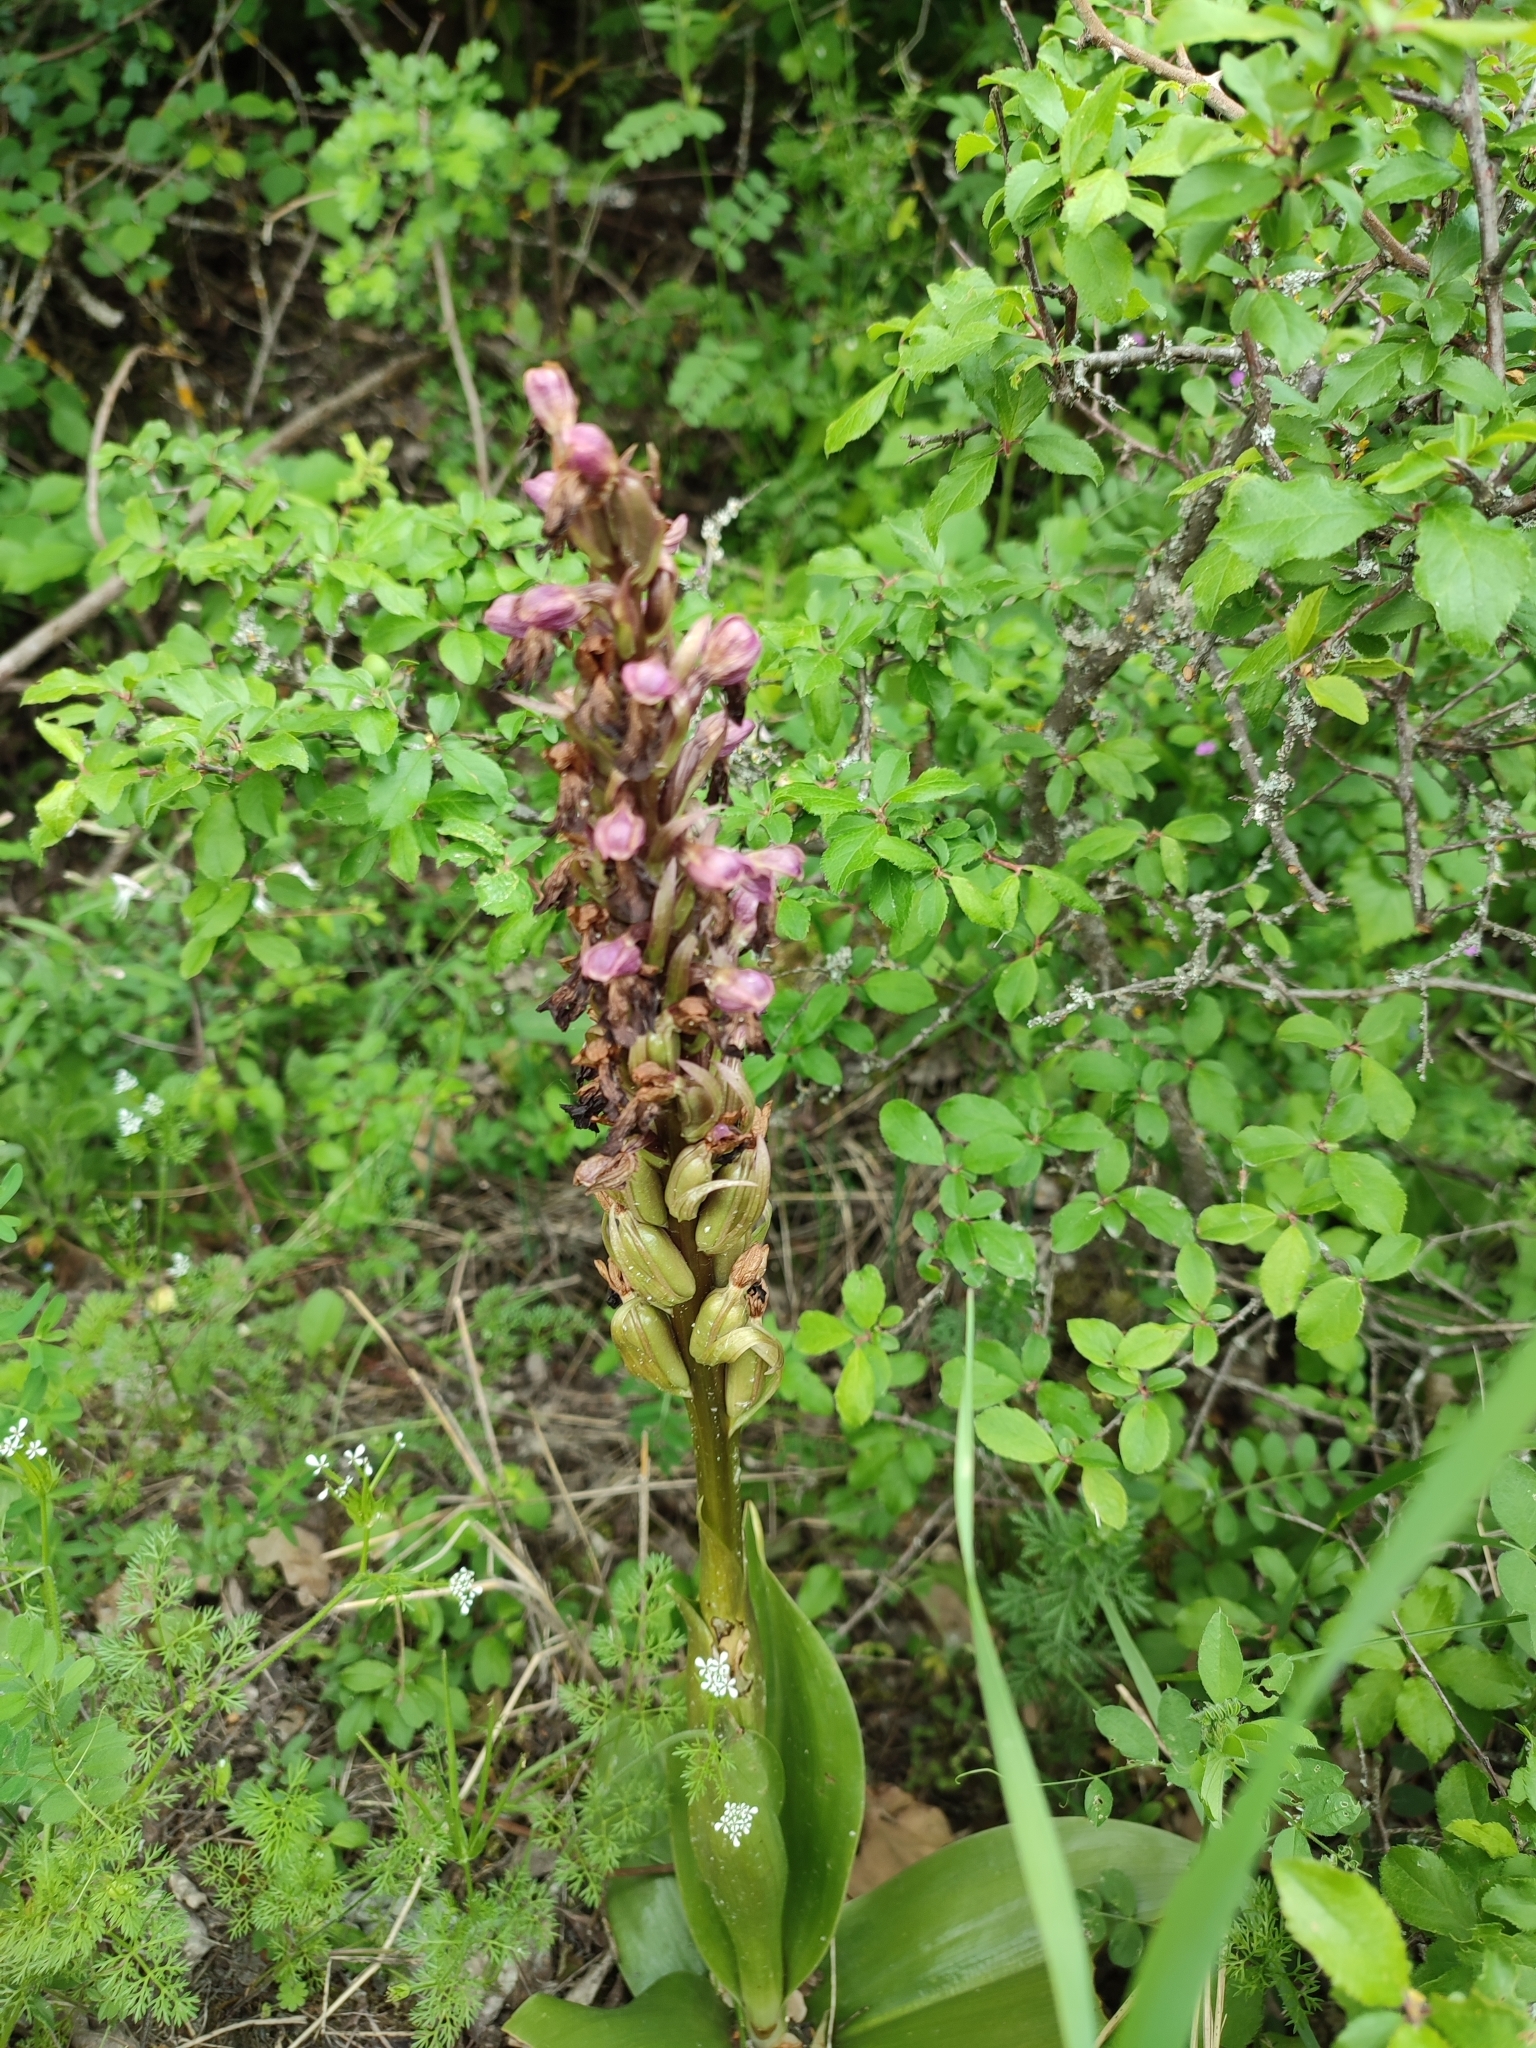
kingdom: Plantae
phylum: Tracheophyta
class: Liliopsida
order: Asparagales
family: Orchidaceae
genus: Himantoglossum
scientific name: Himantoglossum robertianum
